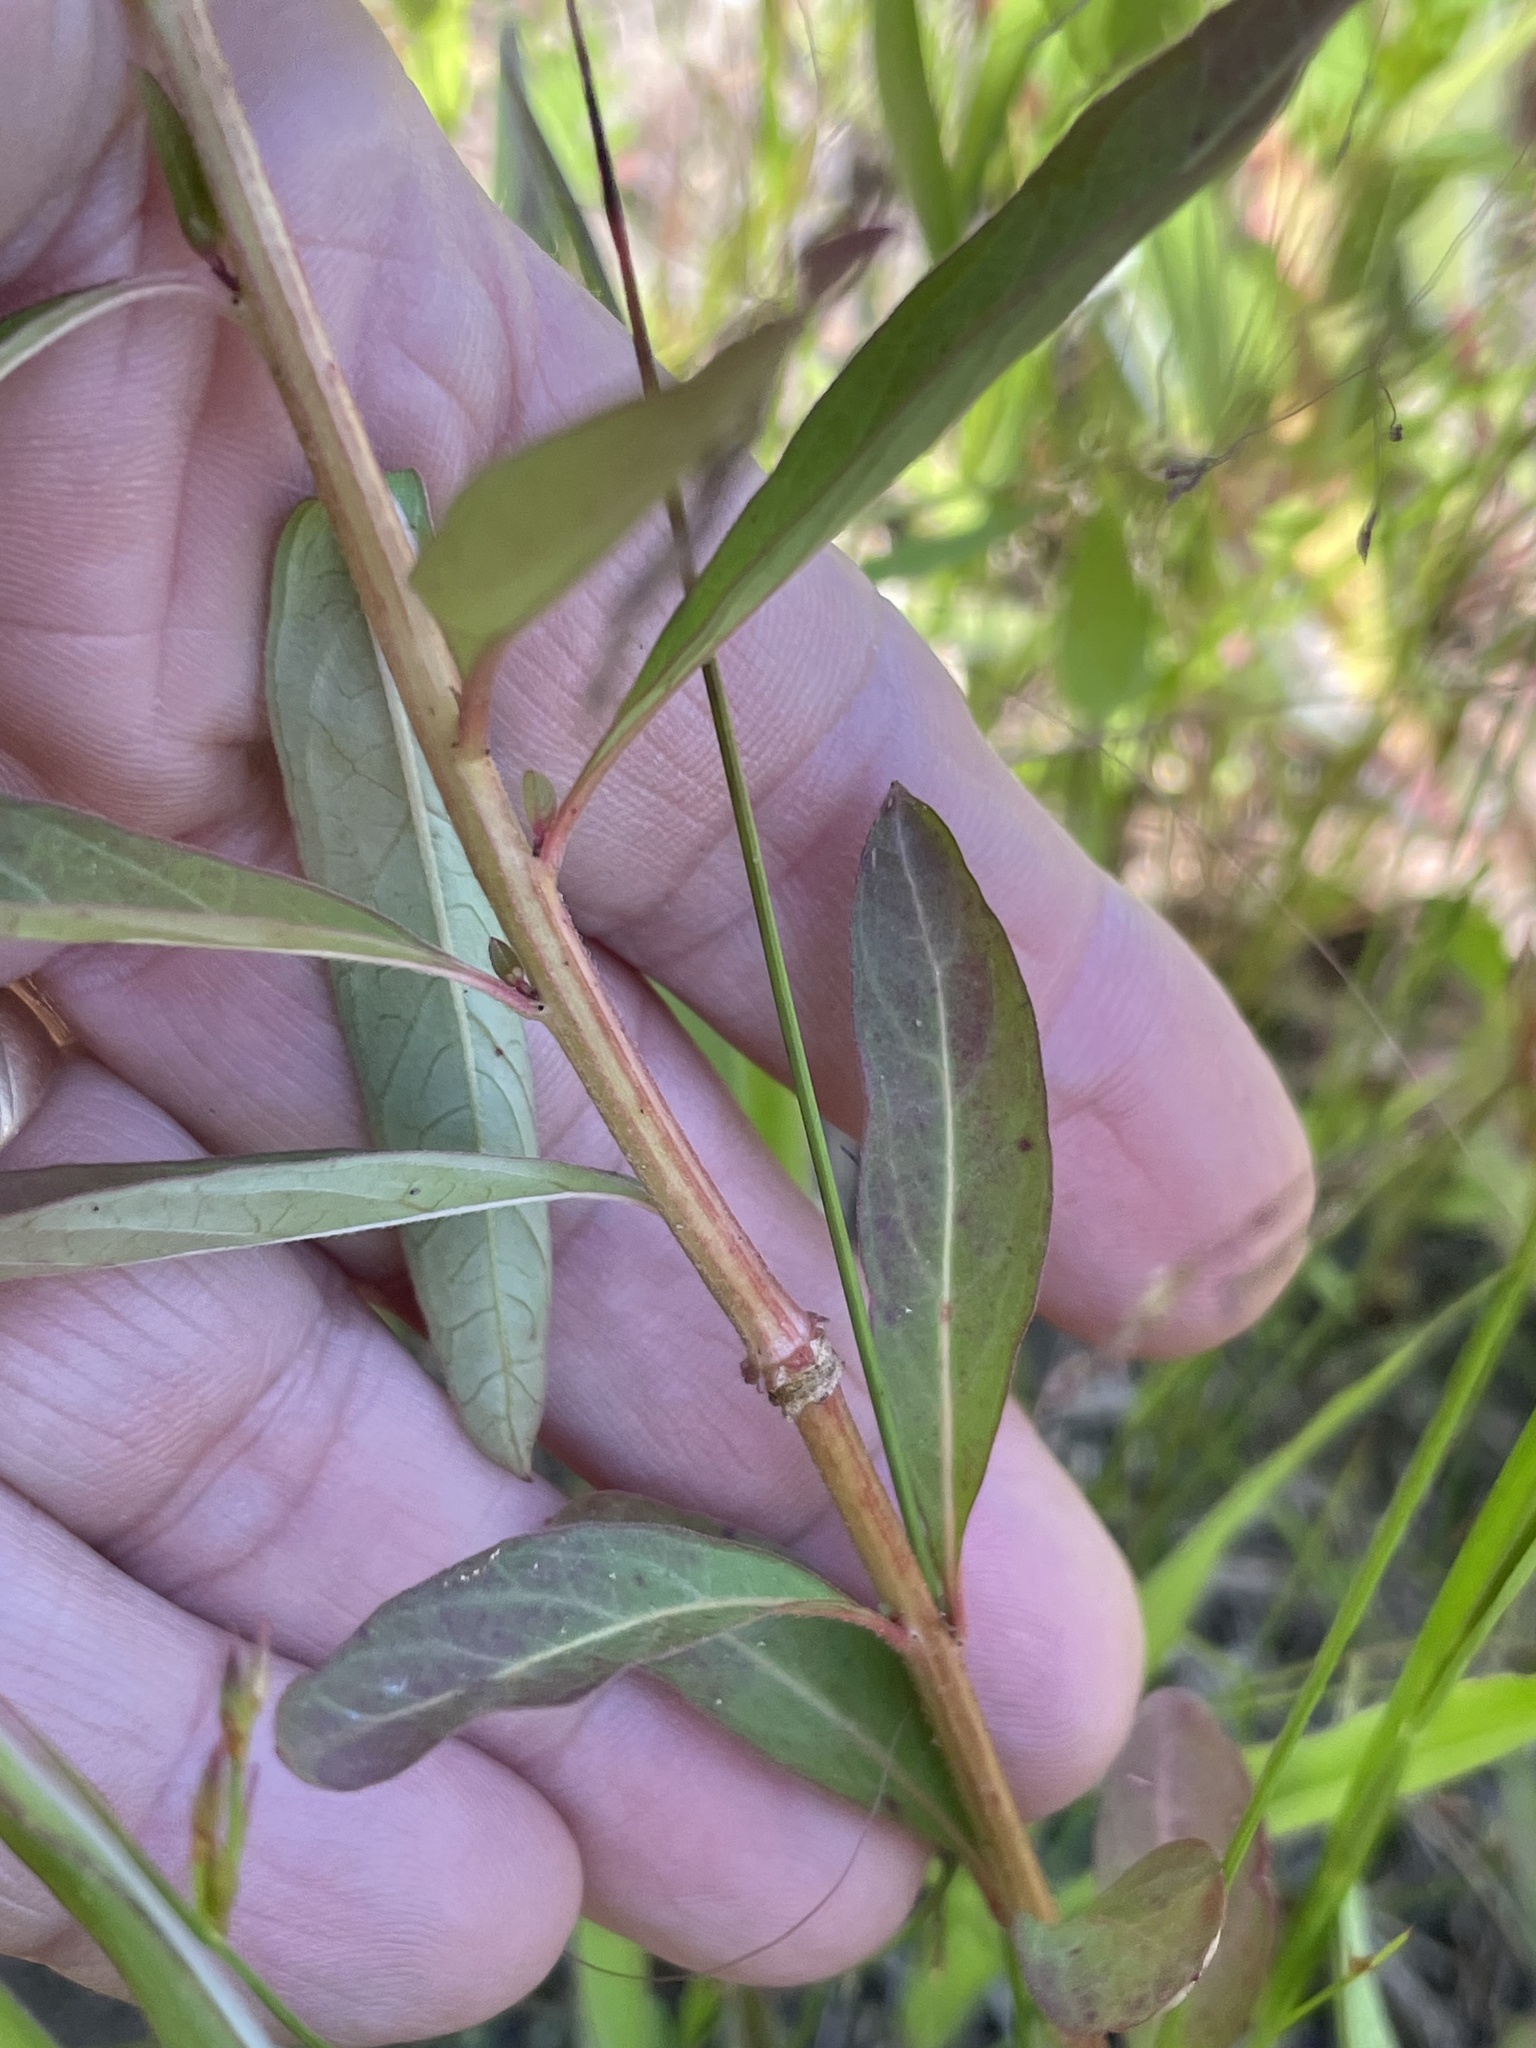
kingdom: Plantae
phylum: Tracheophyta
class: Magnoliopsida
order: Myrtales
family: Onagraceae
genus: Ludwigia
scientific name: Ludwigia alternifolia
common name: Rattlebox
